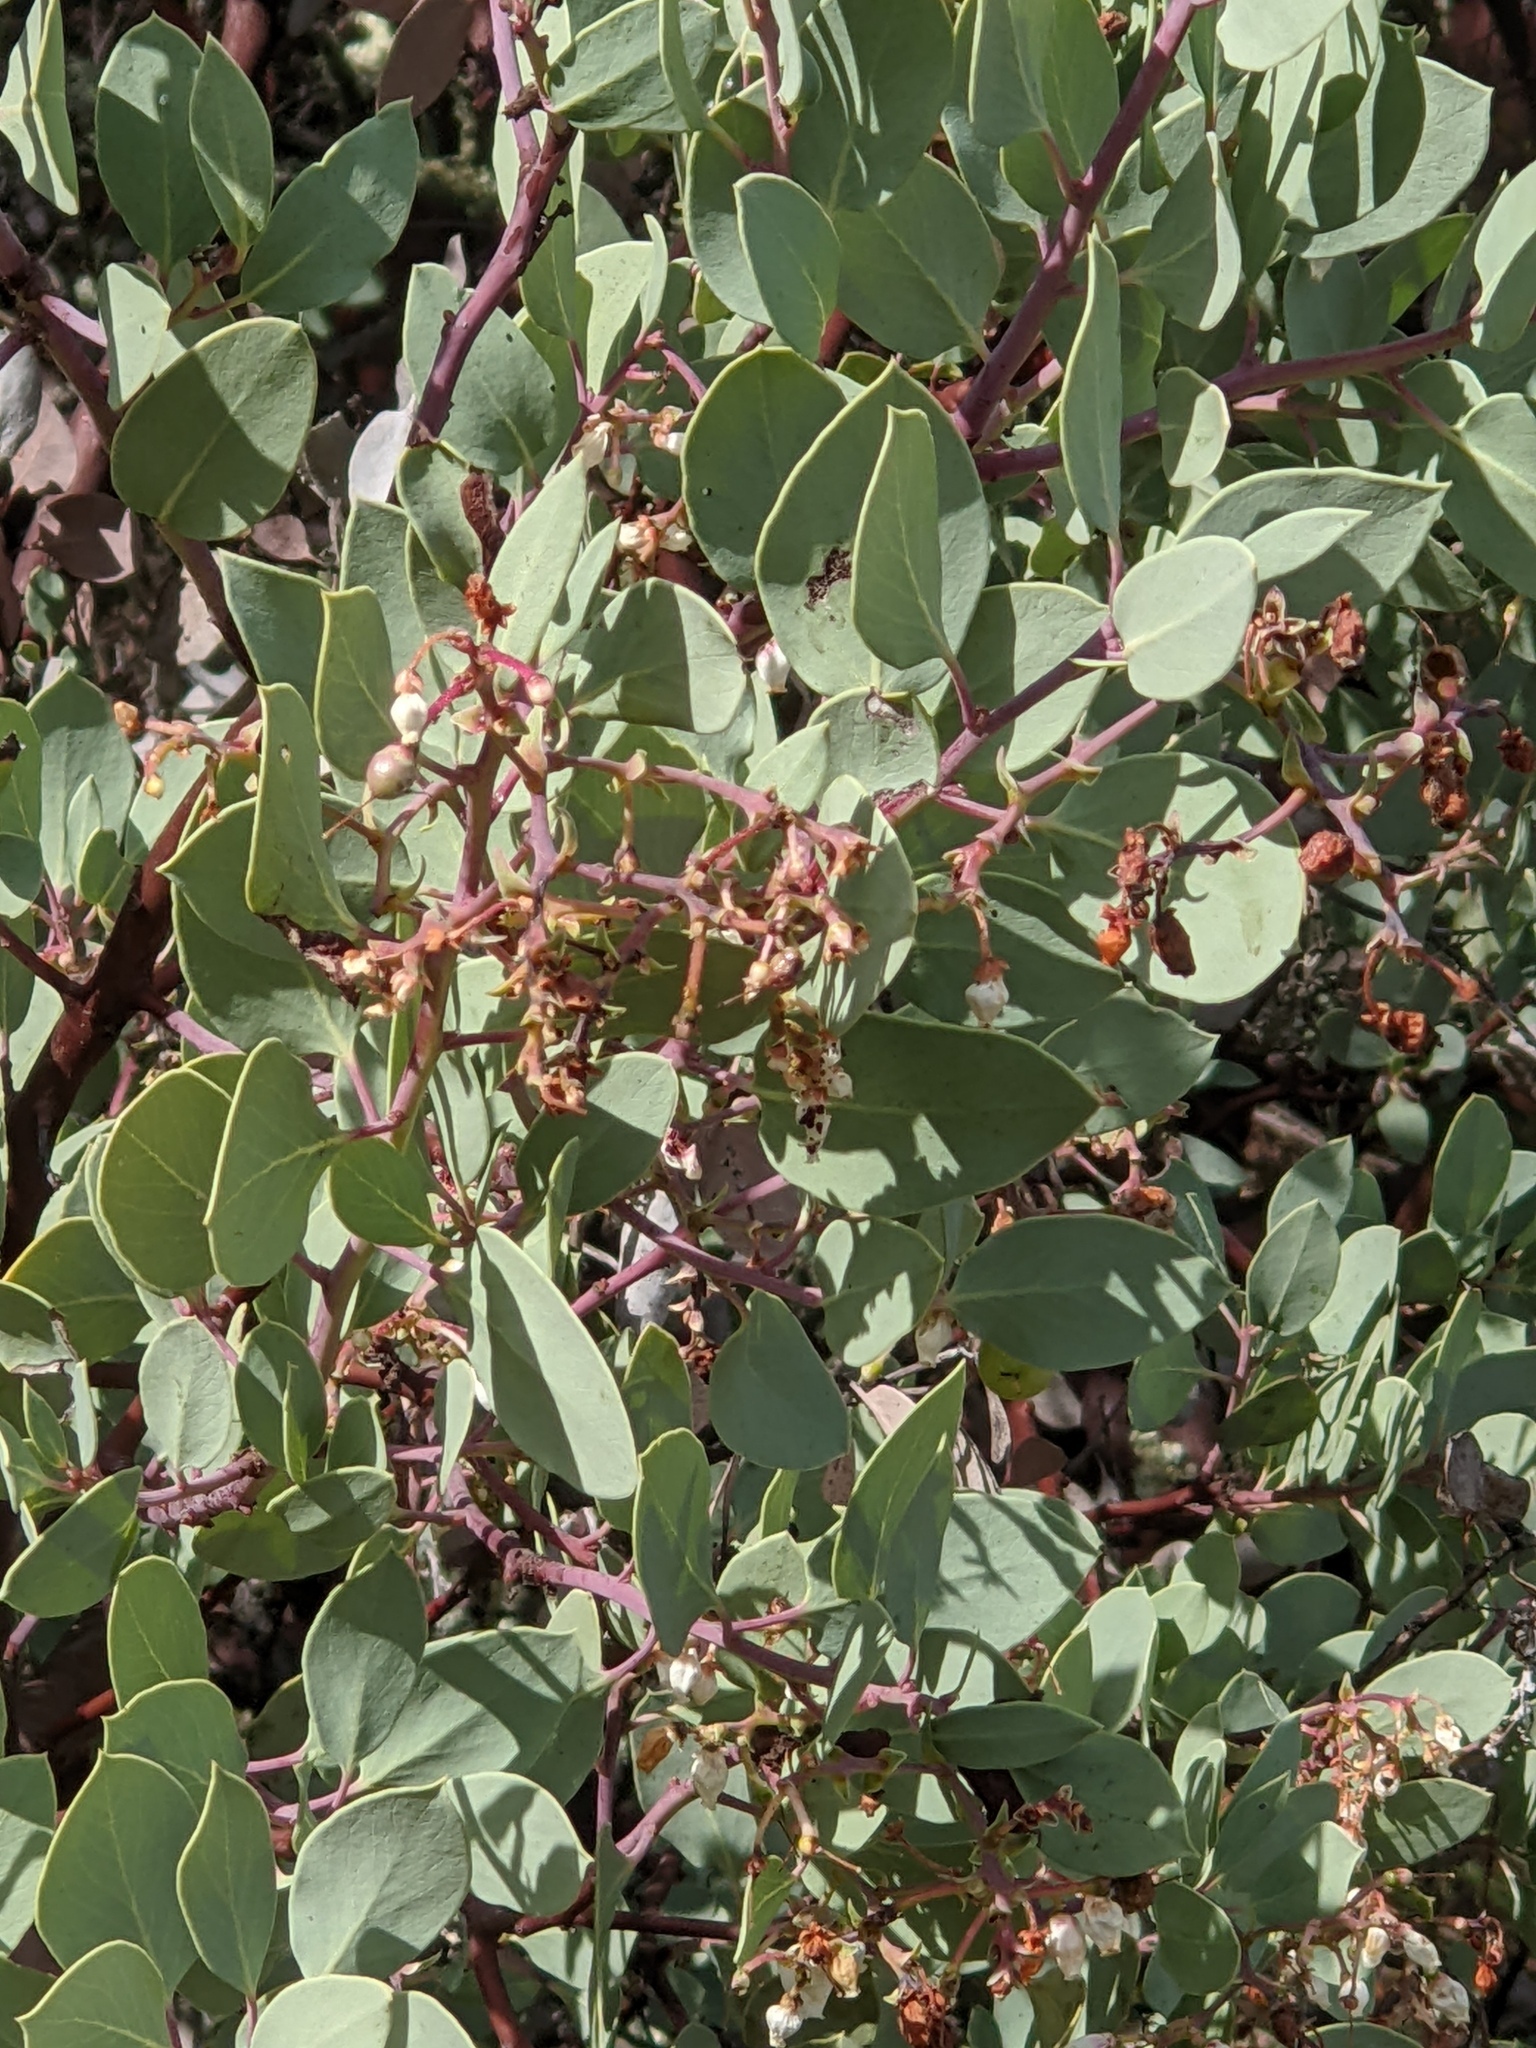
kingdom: Plantae
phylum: Tracheophyta
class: Magnoliopsida
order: Ericales
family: Ericaceae
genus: Arctostaphylos
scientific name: Arctostaphylos glauca
